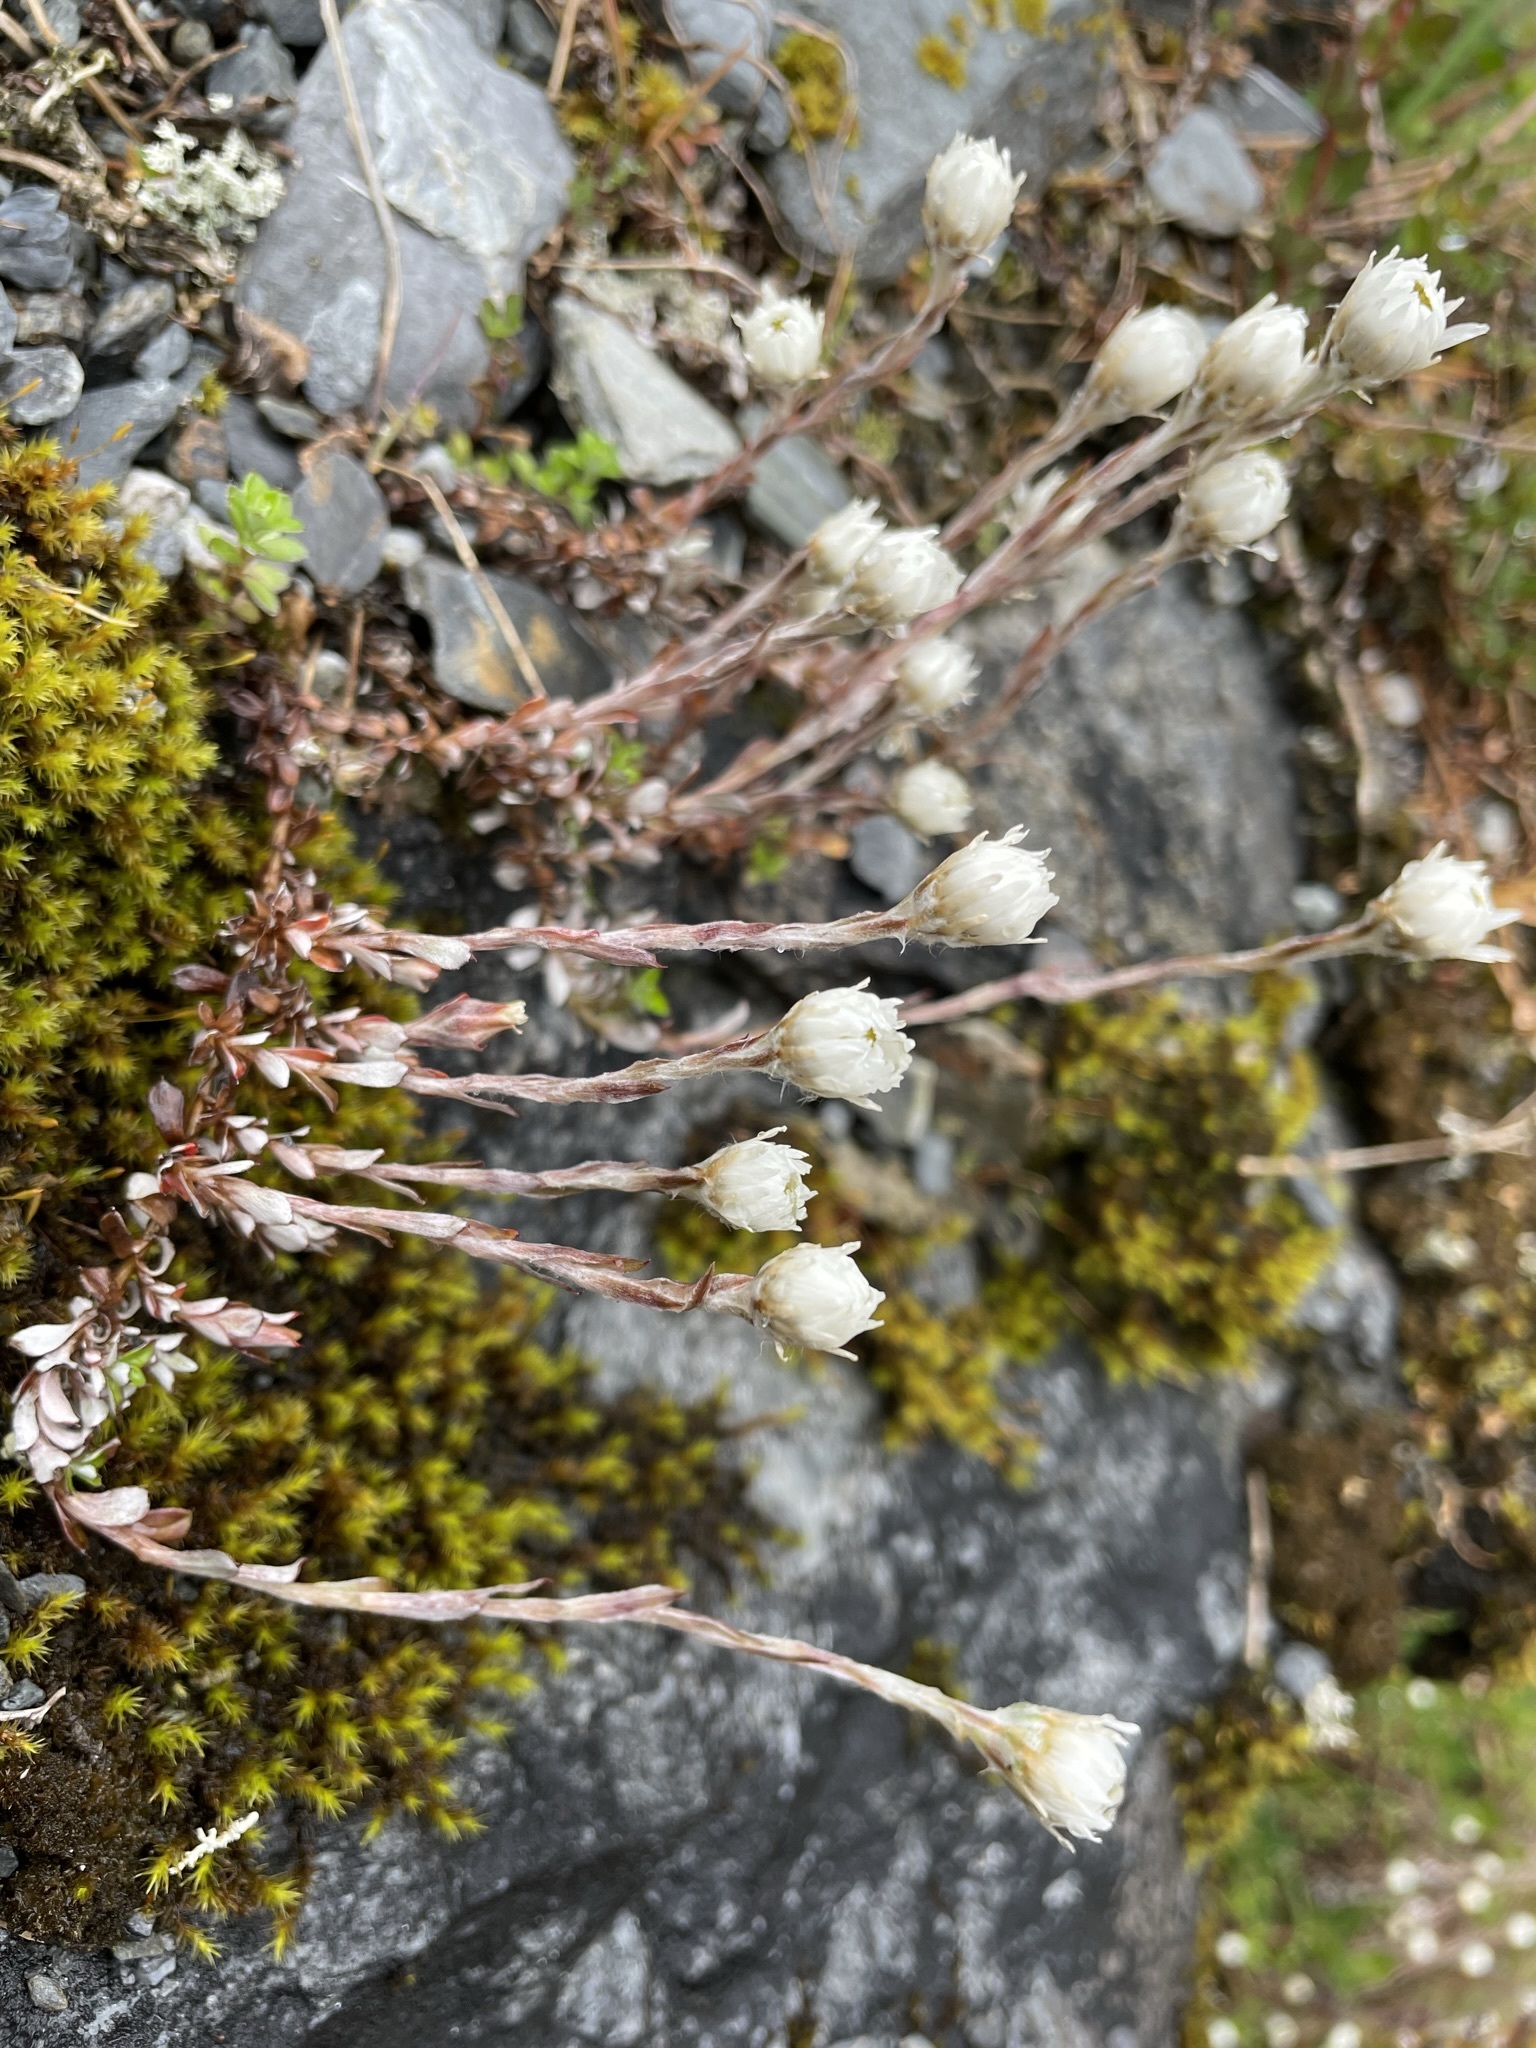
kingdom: Plantae
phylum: Tracheophyta
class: Magnoliopsida
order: Asterales
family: Asteraceae
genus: Anaphalioides
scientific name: Anaphalioides bellidioides
